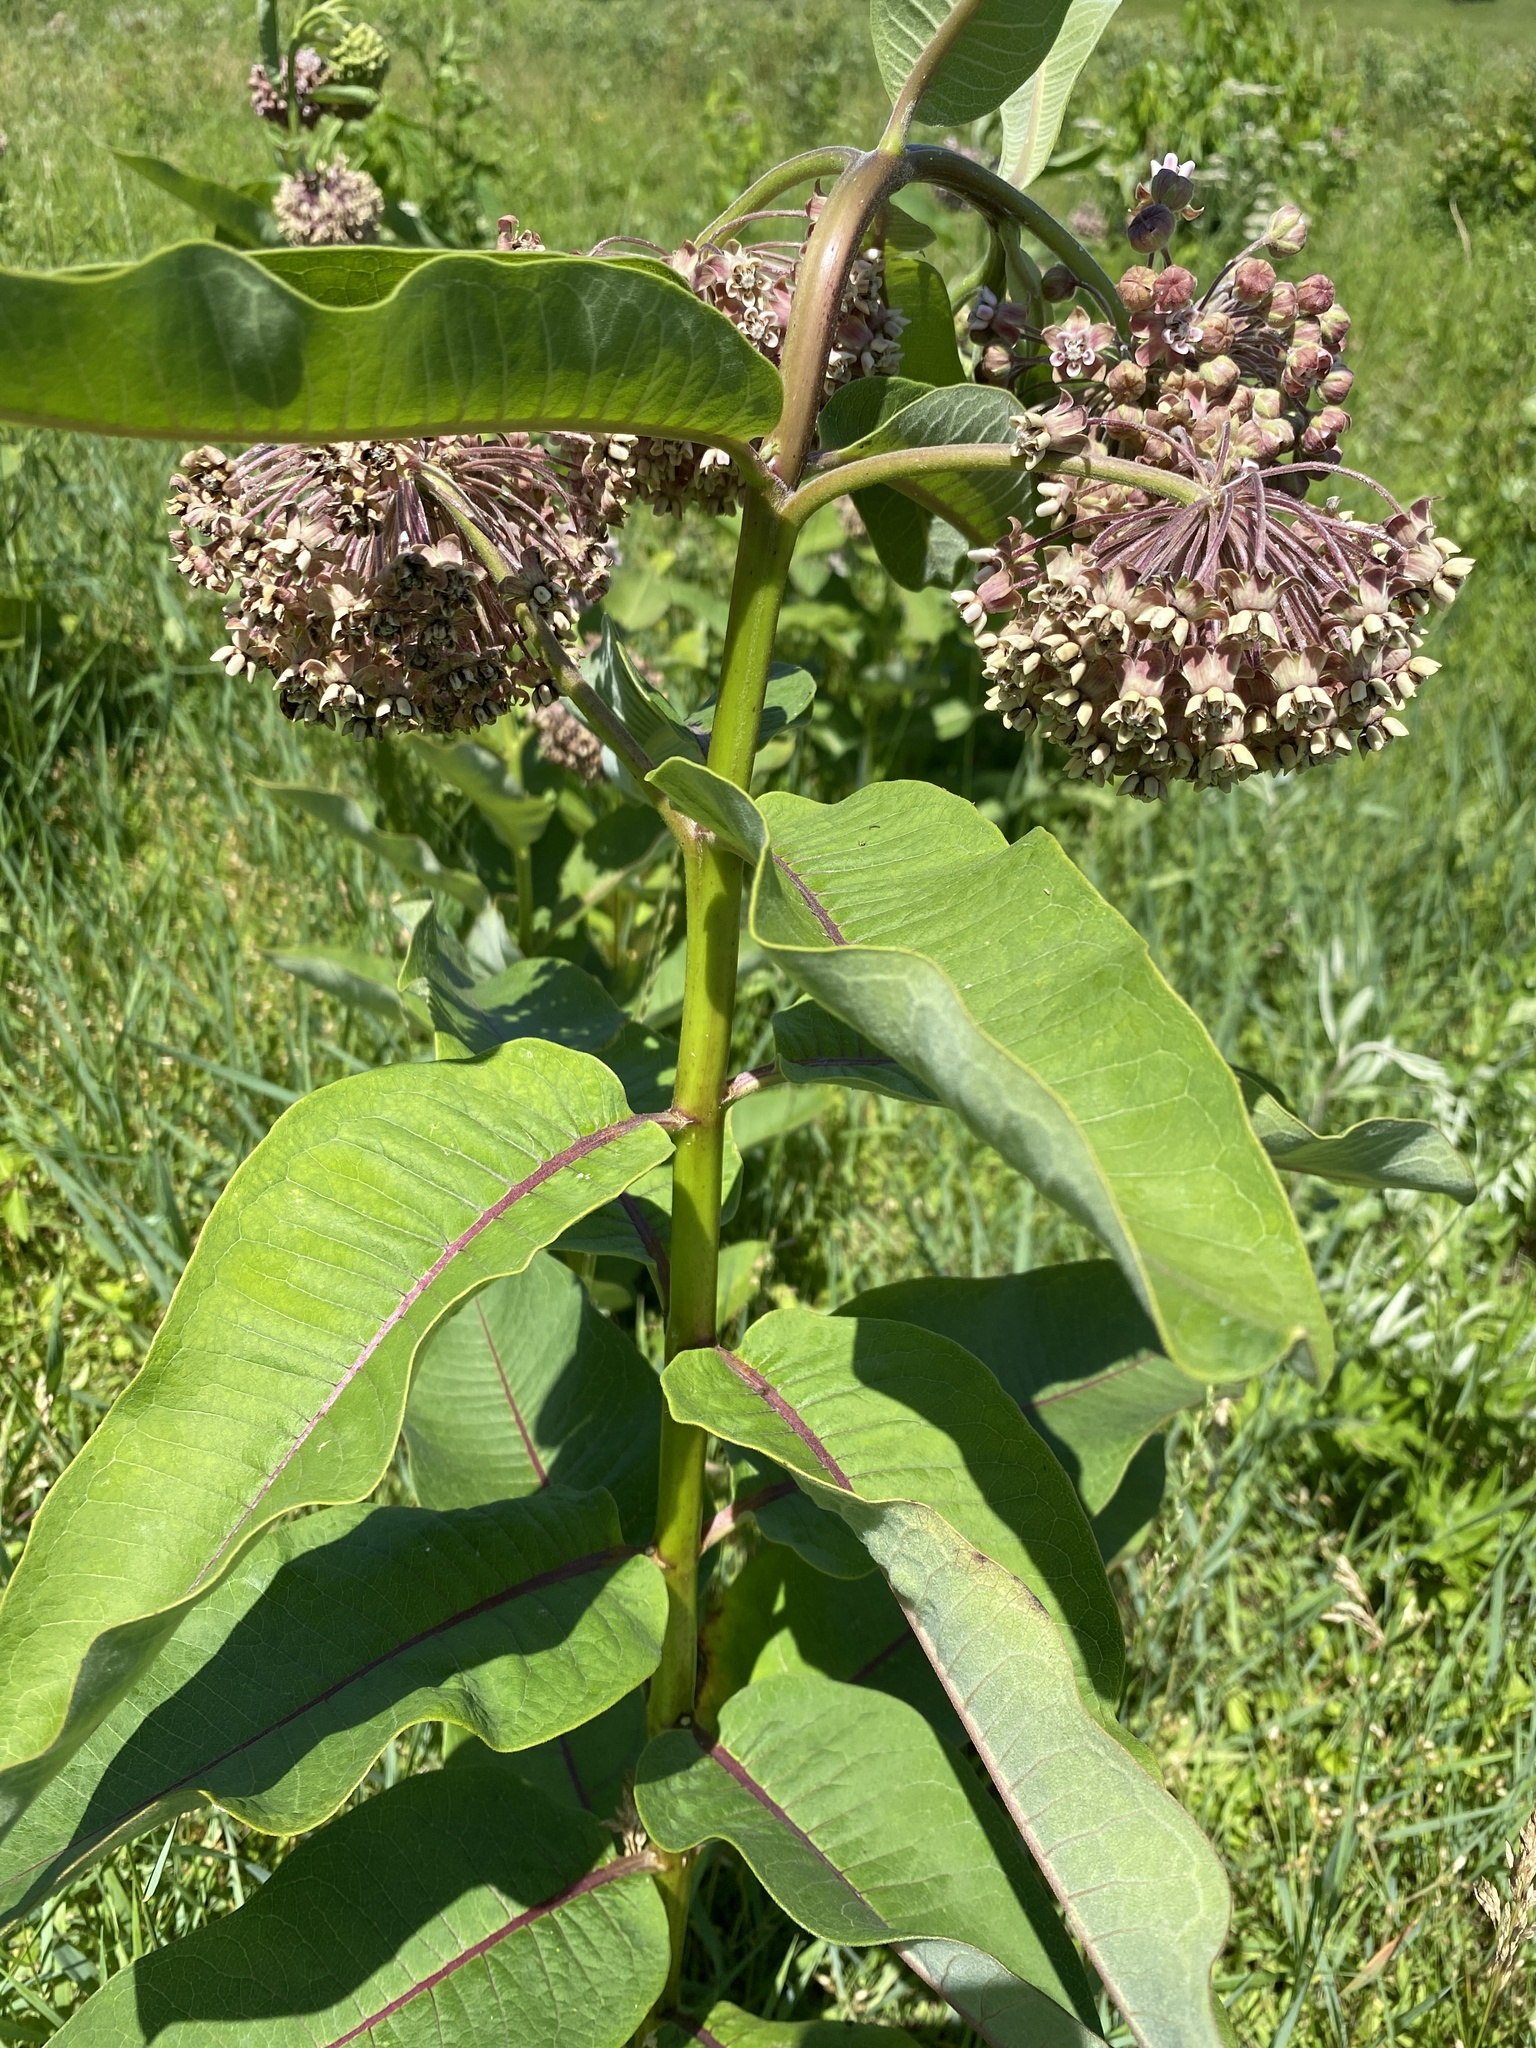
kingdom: Plantae
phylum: Tracheophyta
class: Magnoliopsida
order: Gentianales
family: Apocynaceae
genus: Asclepias
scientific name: Asclepias syriaca
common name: Common milkweed
